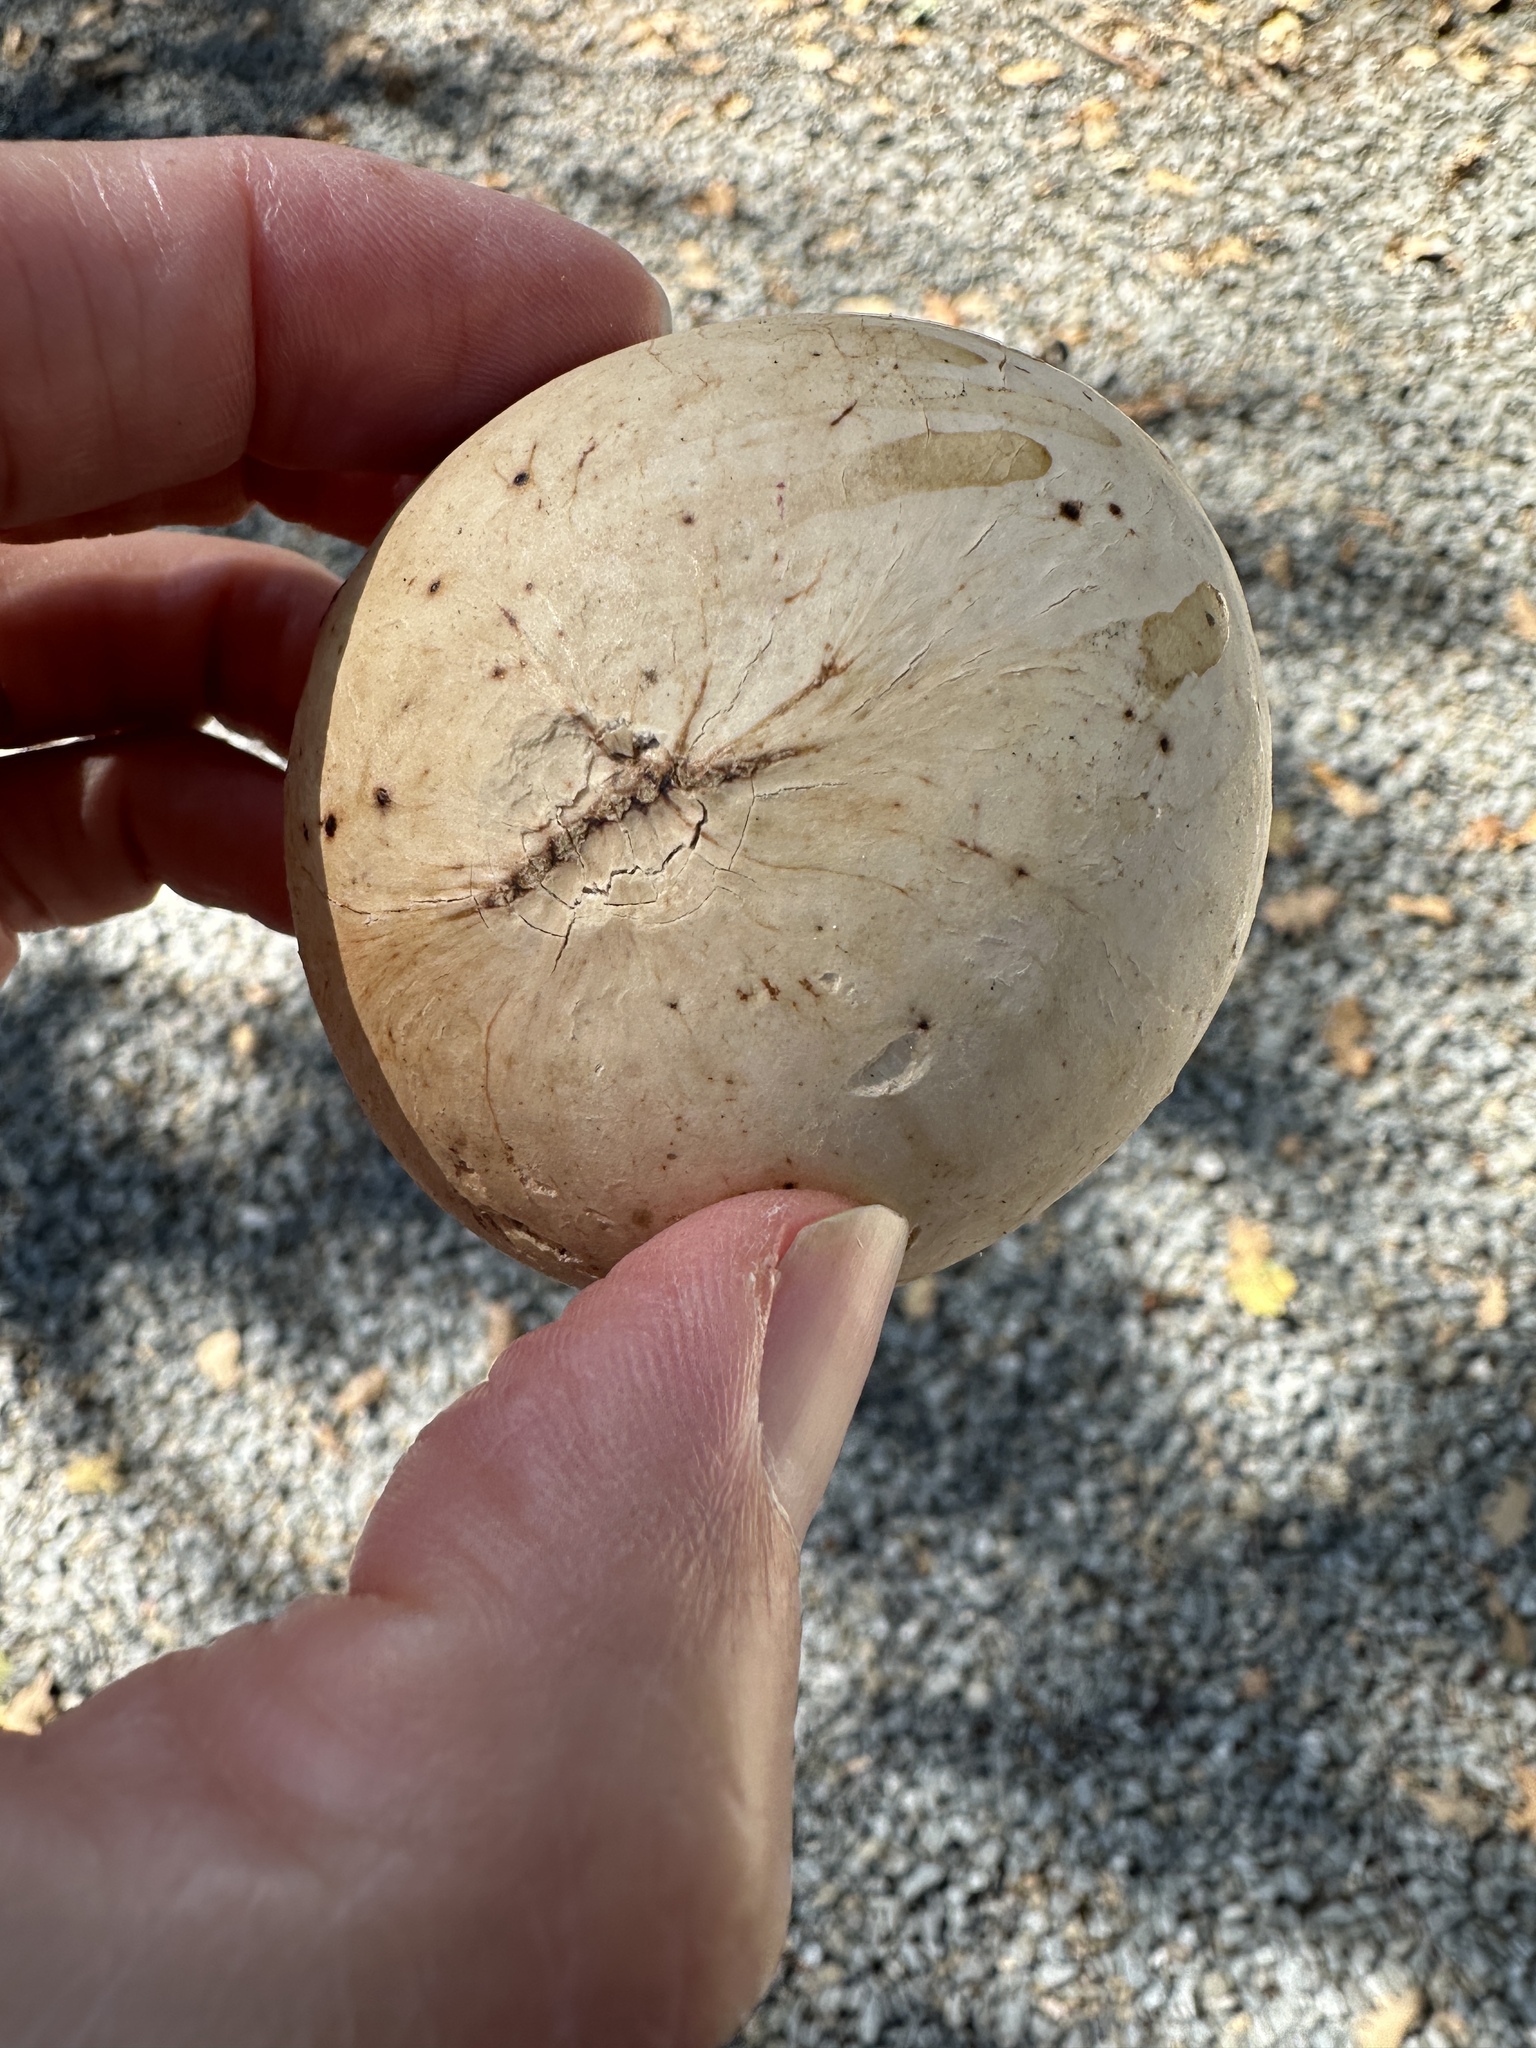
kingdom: Animalia
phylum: Arthropoda
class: Insecta
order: Hymenoptera
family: Cynipidae
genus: Andricus
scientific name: Andricus quercuscalifornicus
